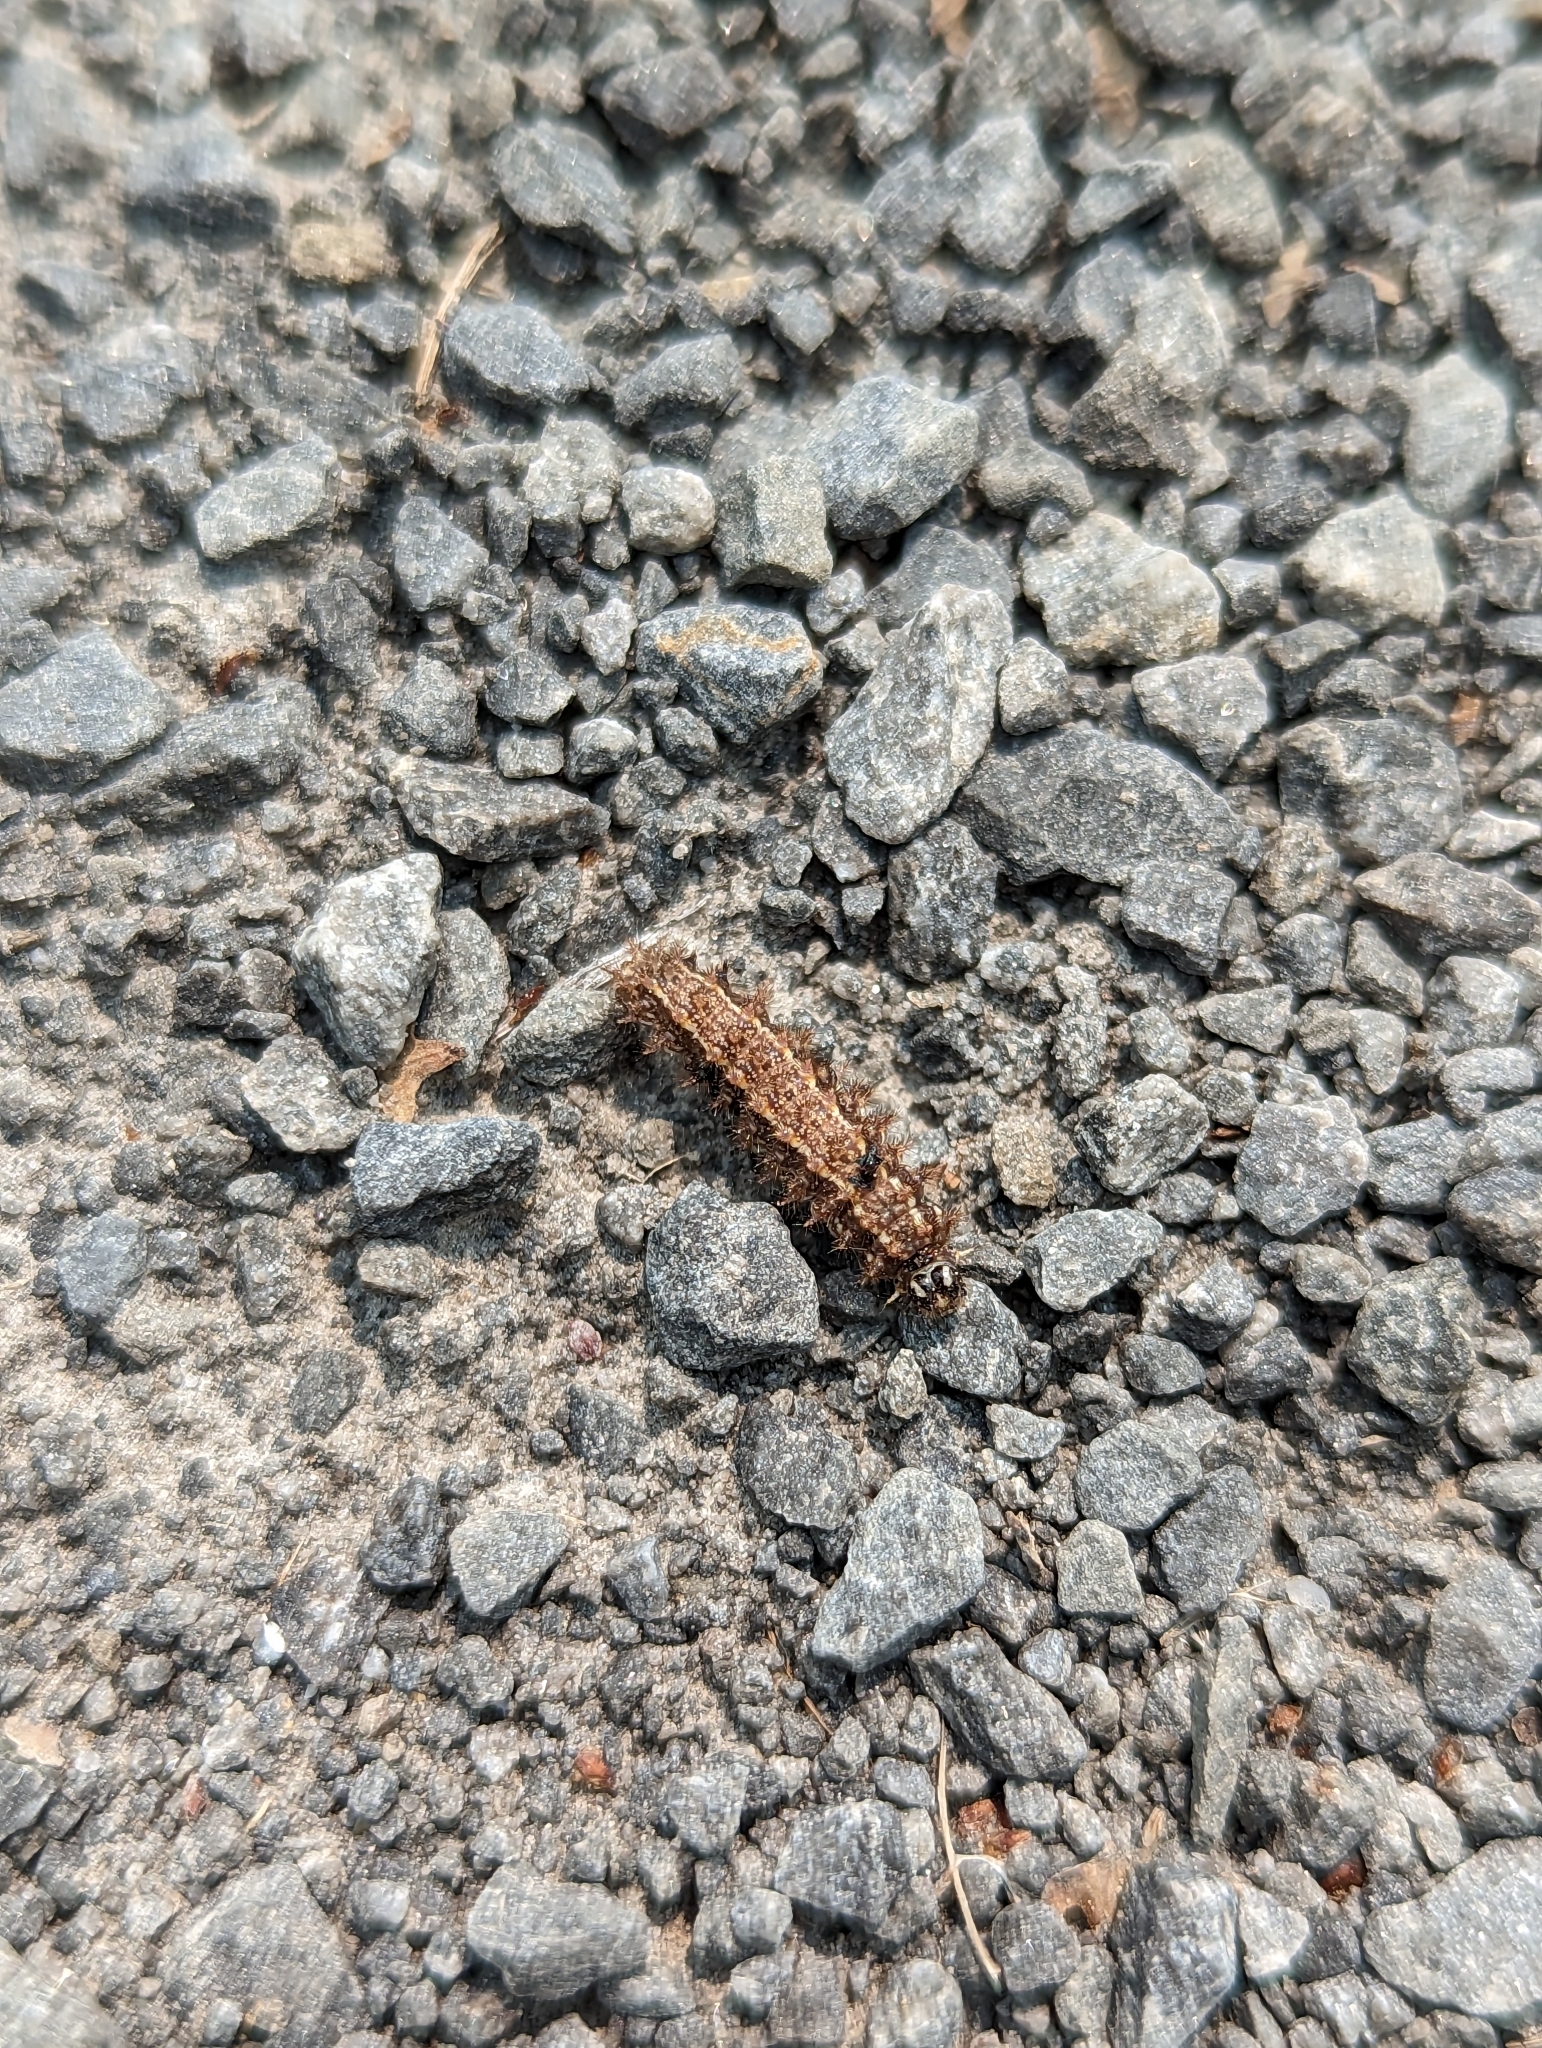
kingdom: Animalia
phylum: Arthropoda
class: Insecta
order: Lepidoptera
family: Nymphalidae
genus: Vanessa
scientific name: Vanessa atalanta
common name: Red admiral
